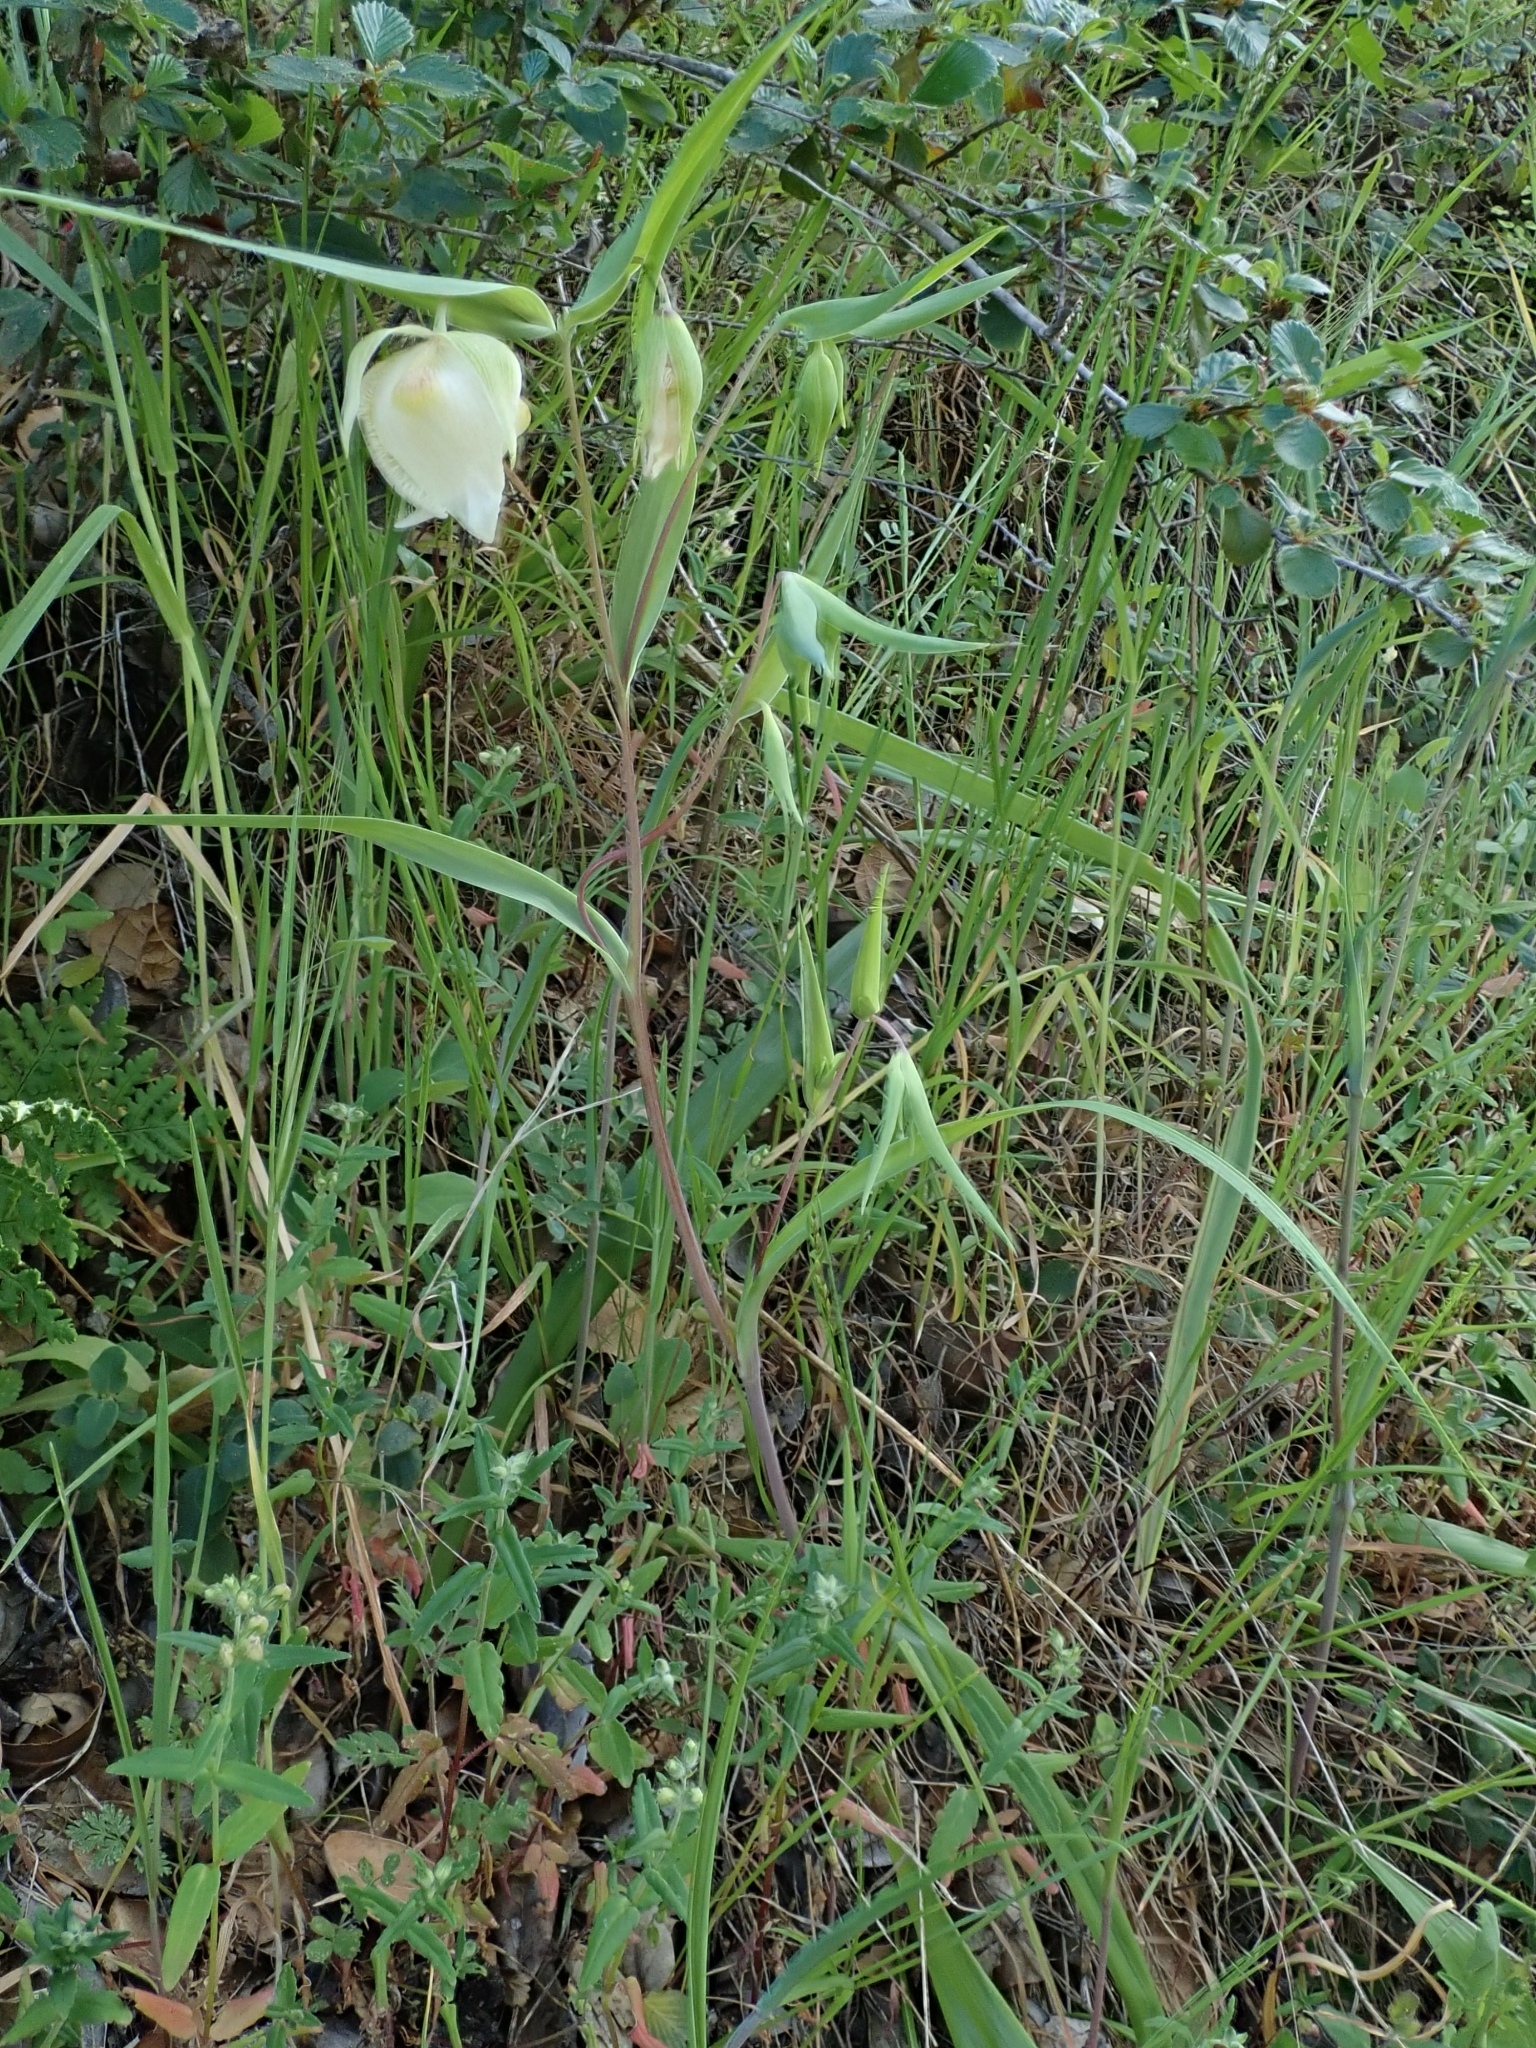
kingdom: Plantae
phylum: Tracheophyta
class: Liliopsida
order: Liliales
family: Liliaceae
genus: Calochortus
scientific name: Calochortus albus
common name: Fairy-lantern
